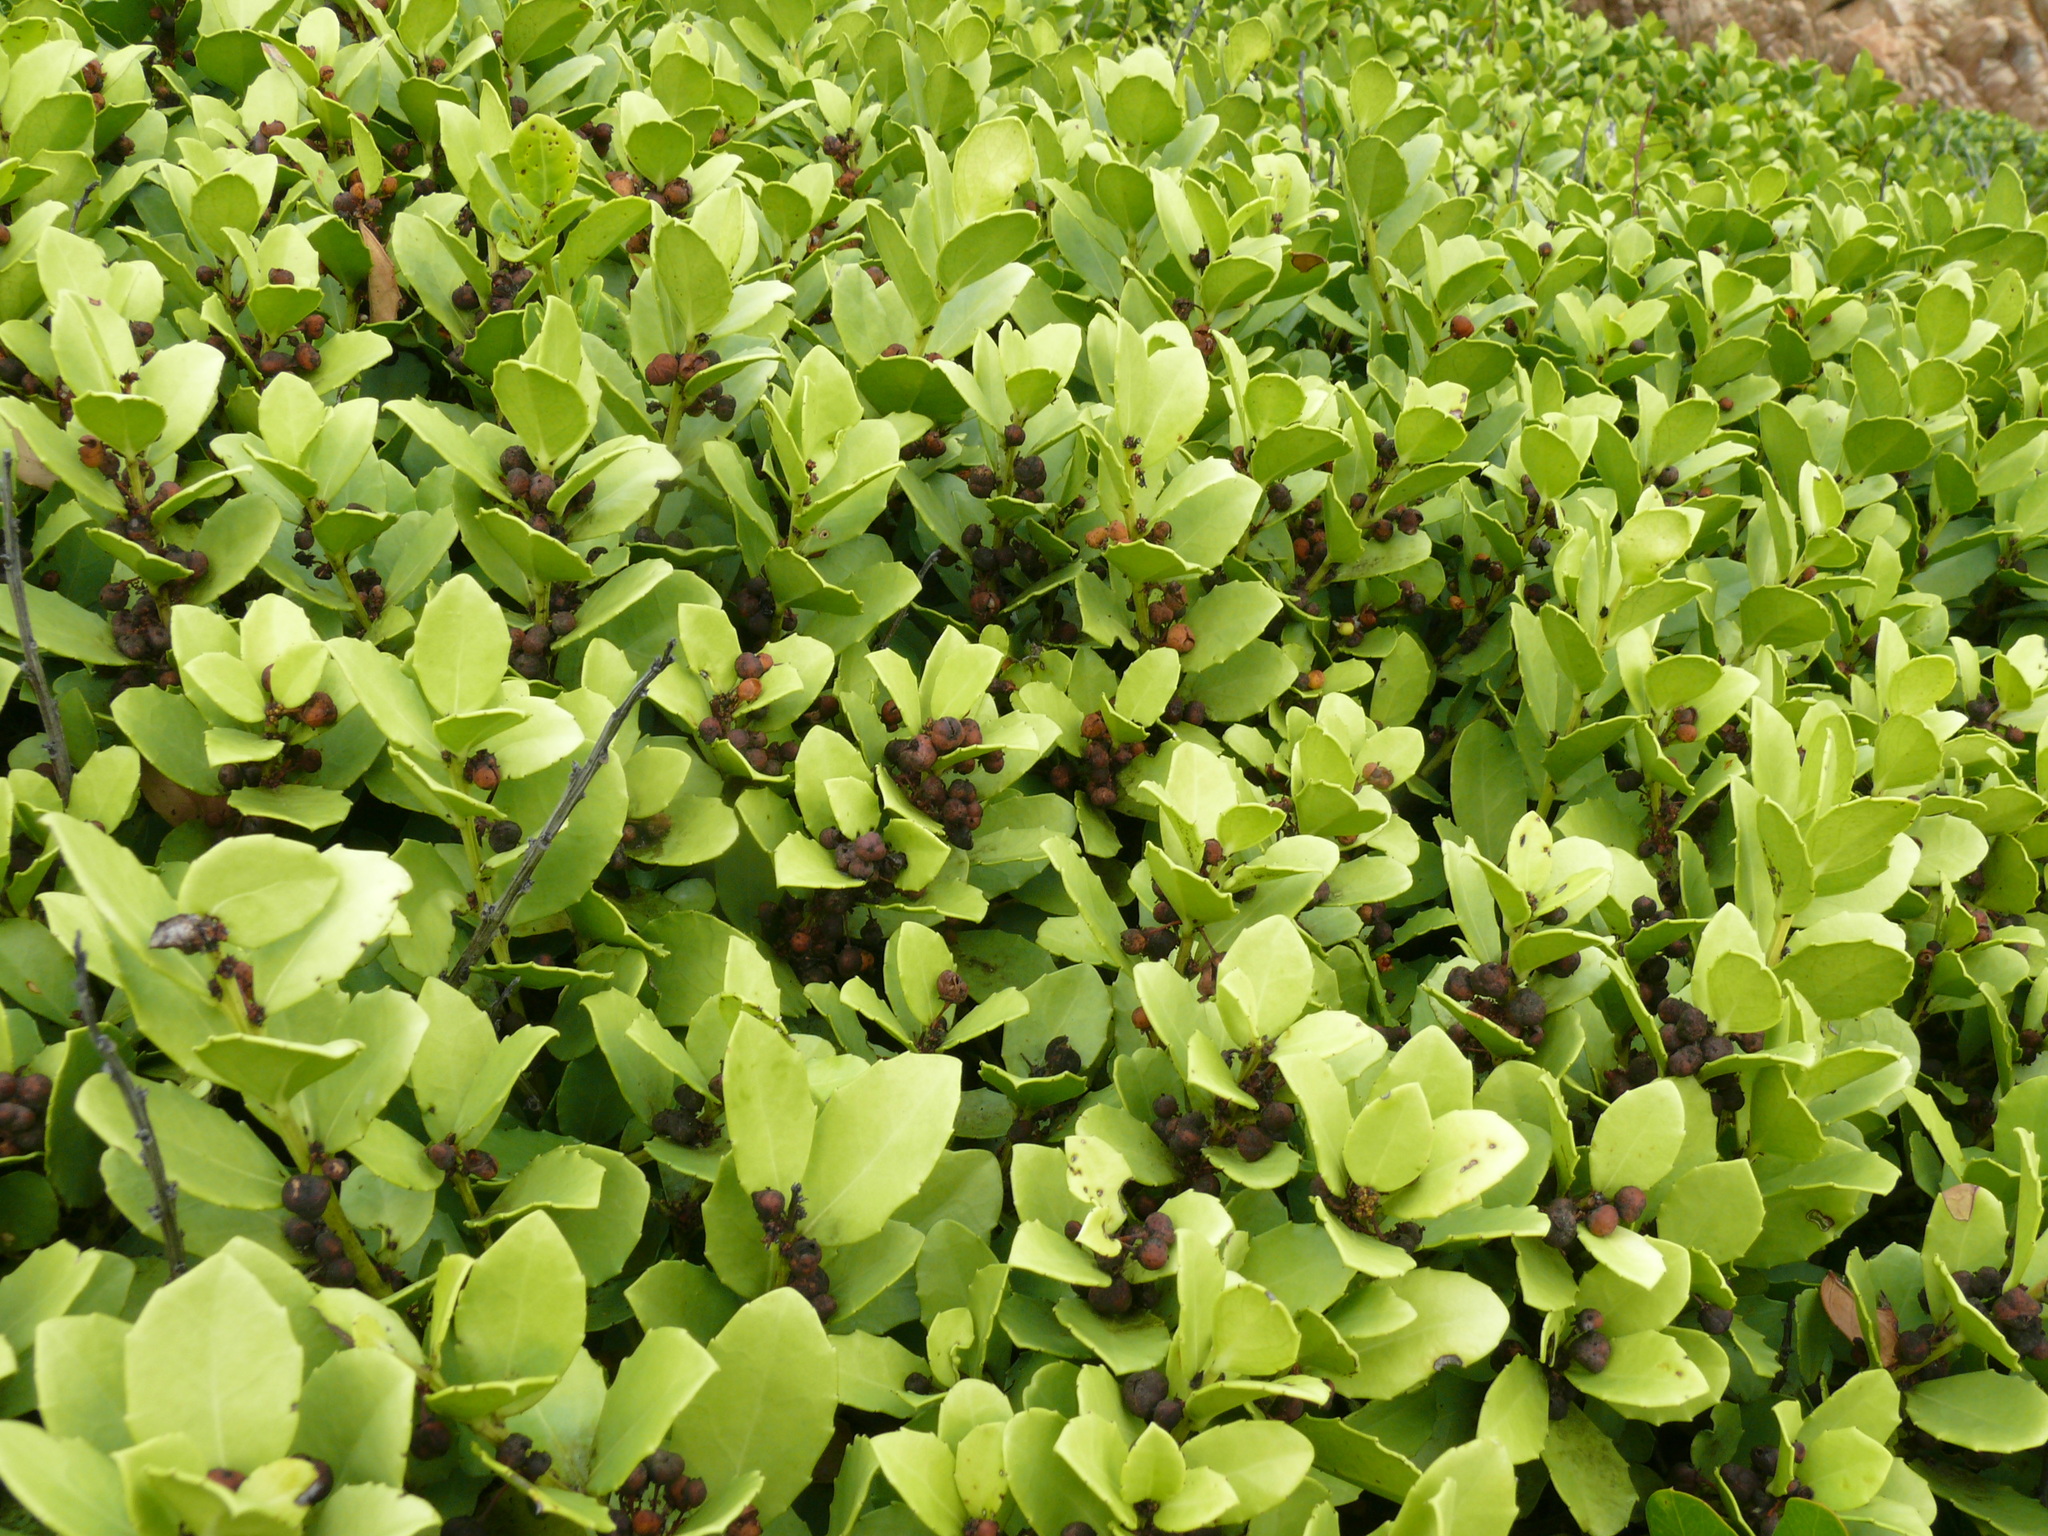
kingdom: Plantae
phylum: Tracheophyta
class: Magnoliopsida
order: Celastrales
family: Celastraceae
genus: Gymnosporia
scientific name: Gymnosporia procumbens
